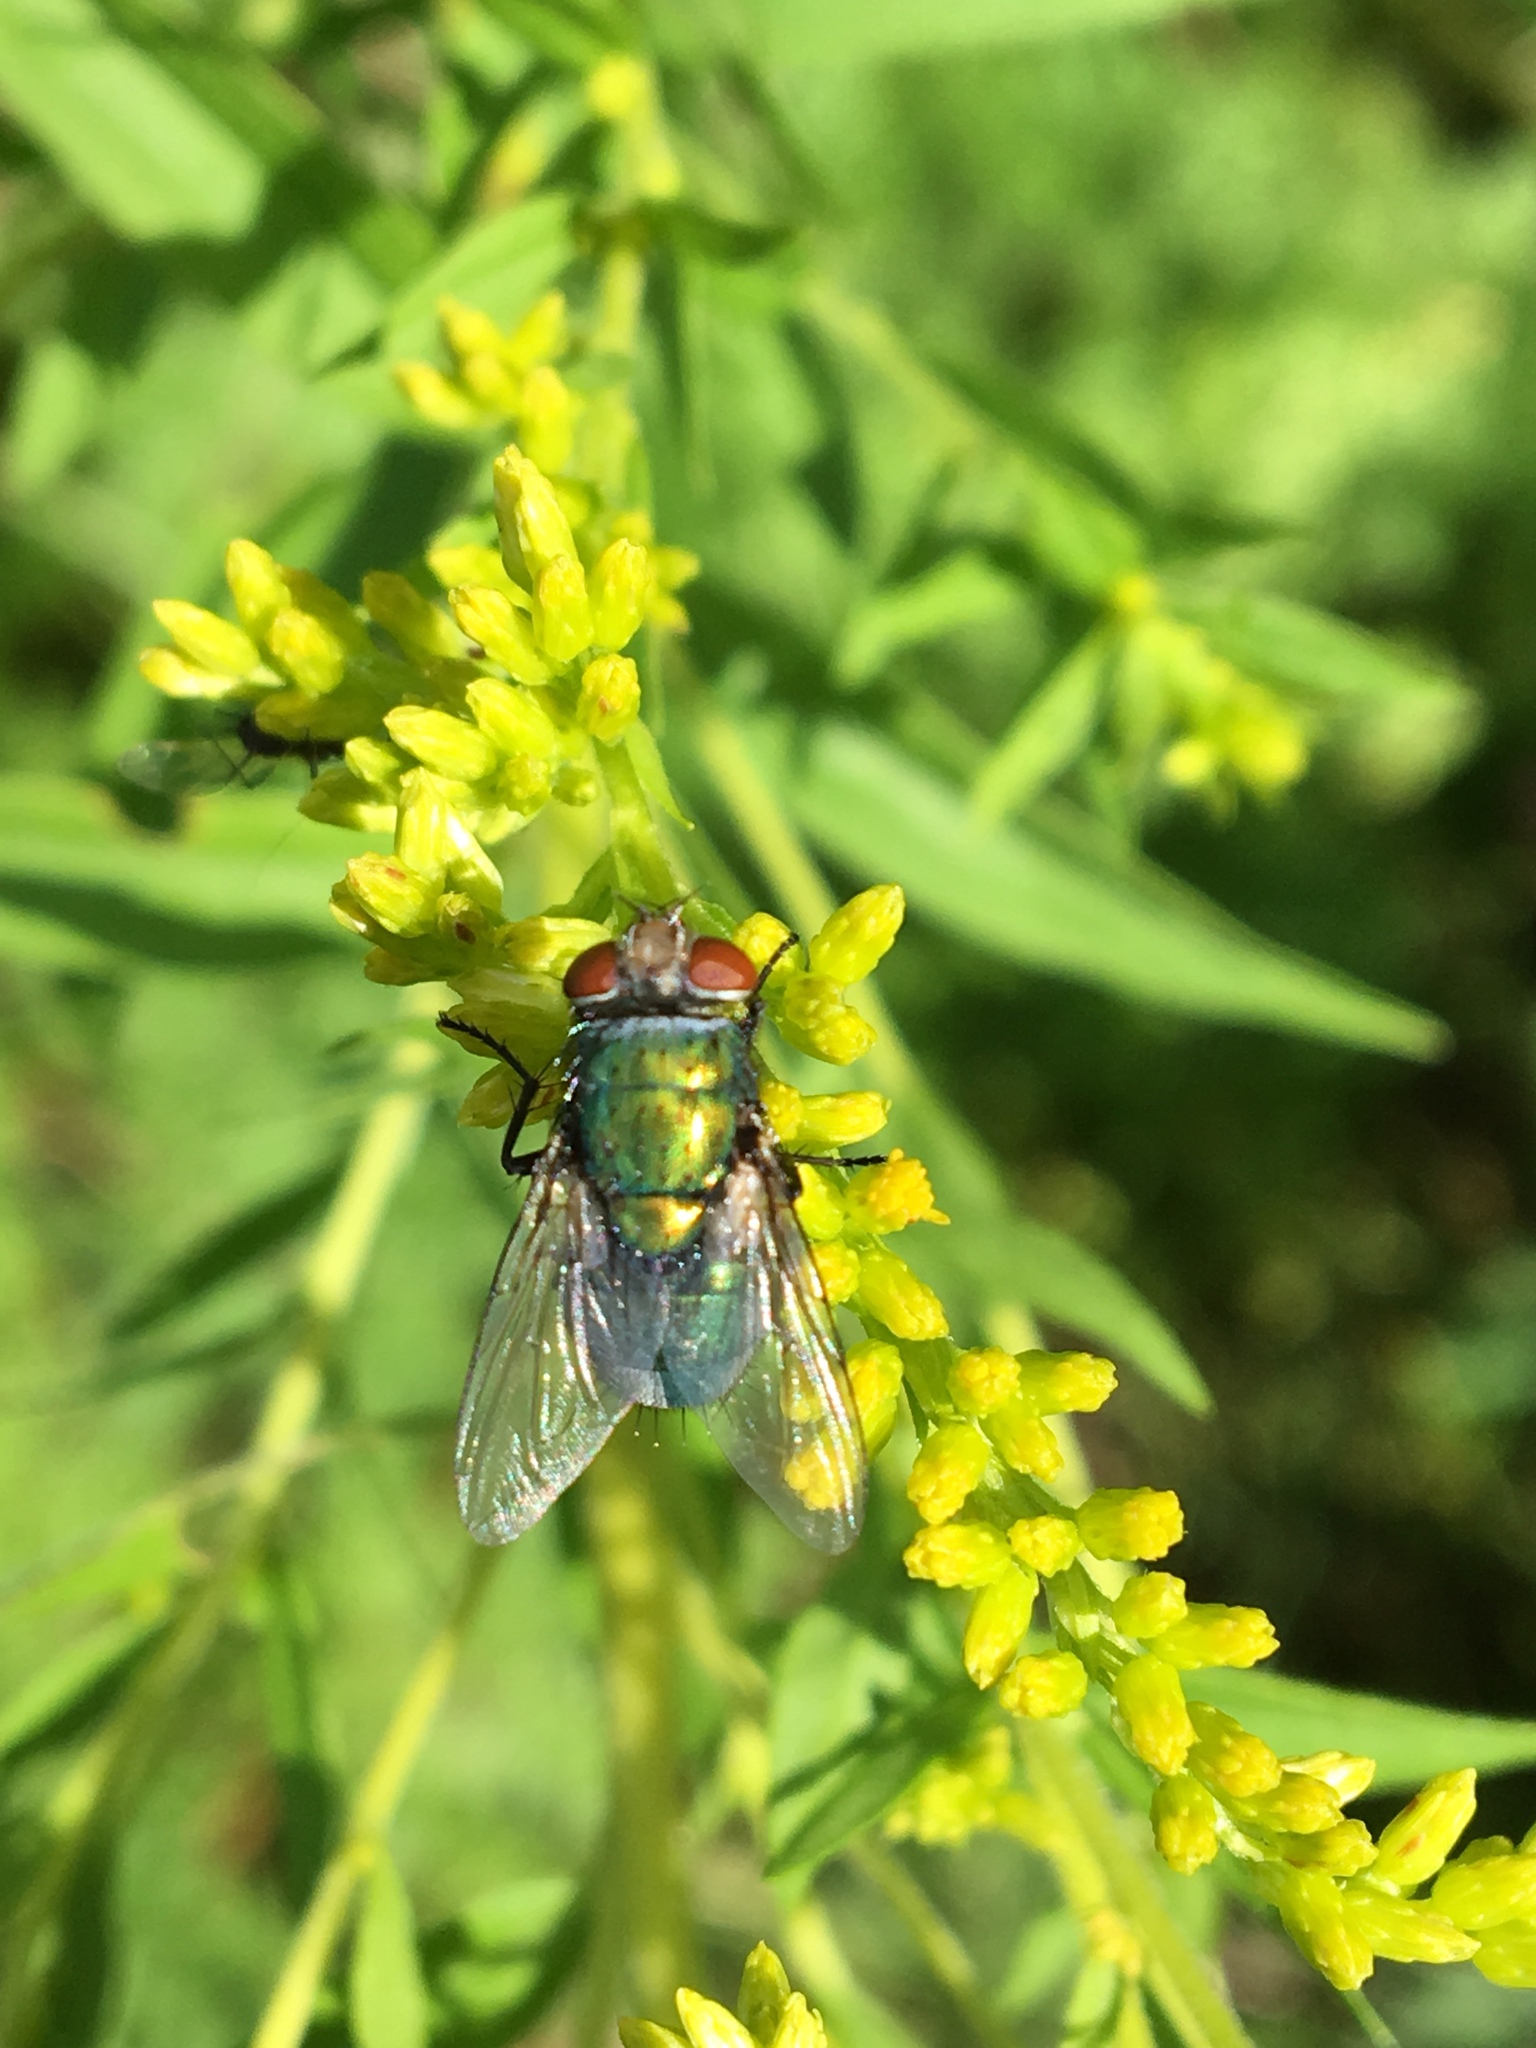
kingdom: Animalia
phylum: Arthropoda
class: Insecta
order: Diptera
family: Calliphoridae
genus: Lucilia
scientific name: Lucilia sericata
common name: Blow fly
